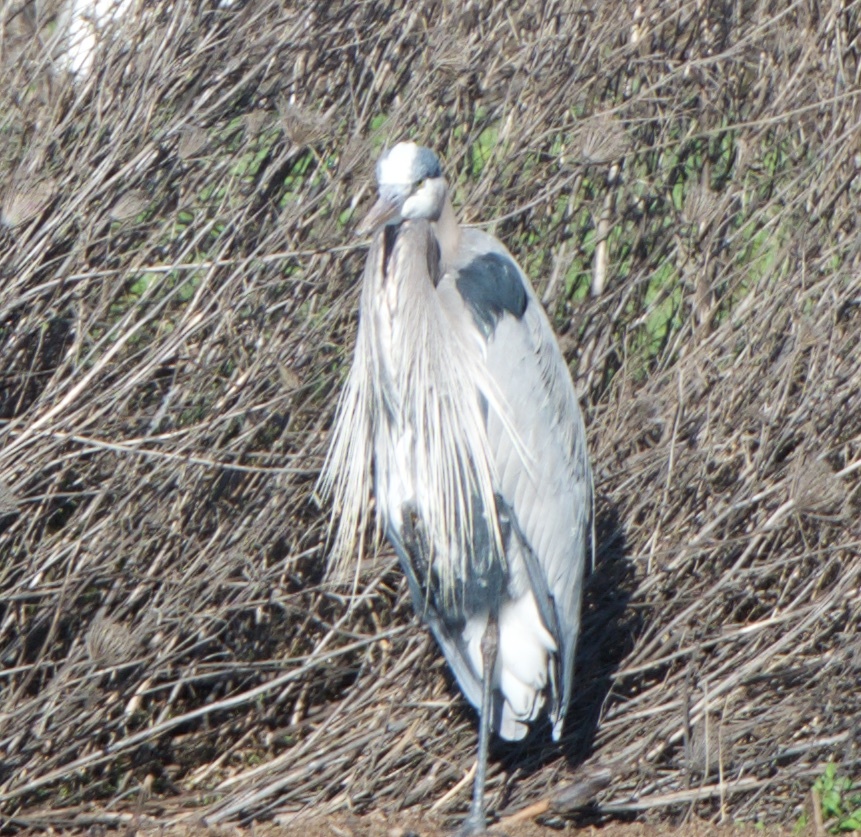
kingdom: Animalia
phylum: Chordata
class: Aves
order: Pelecaniformes
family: Ardeidae
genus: Ardea
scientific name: Ardea herodias
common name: Great blue heron
